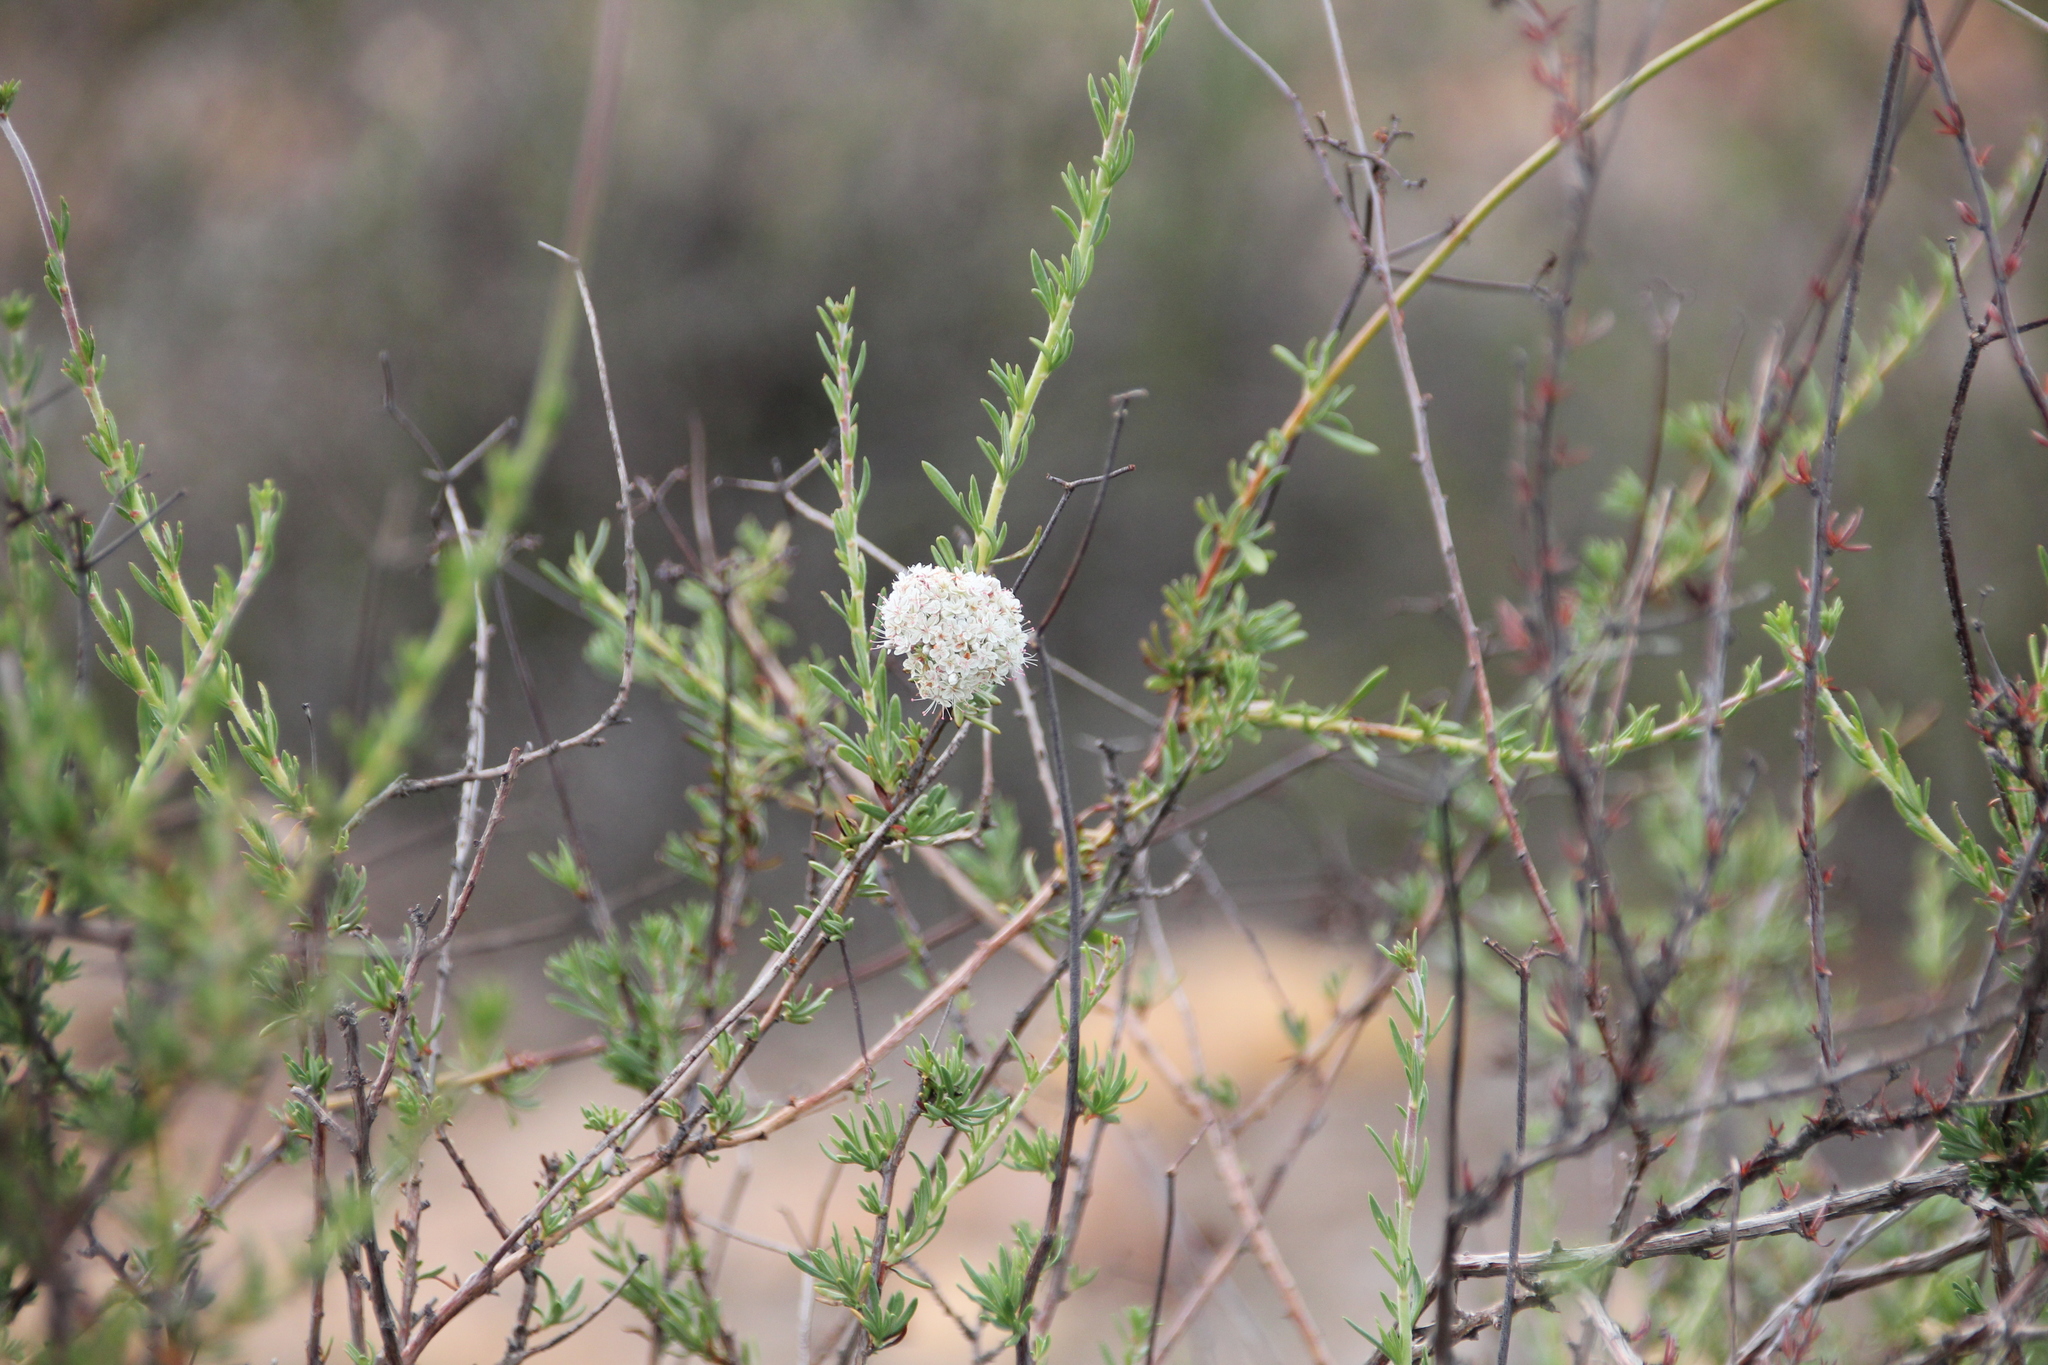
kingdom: Plantae
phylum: Tracheophyta
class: Magnoliopsida
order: Caryophyllales
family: Polygonaceae
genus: Eriogonum
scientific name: Eriogonum fasciculatum
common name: California wild buckwheat
